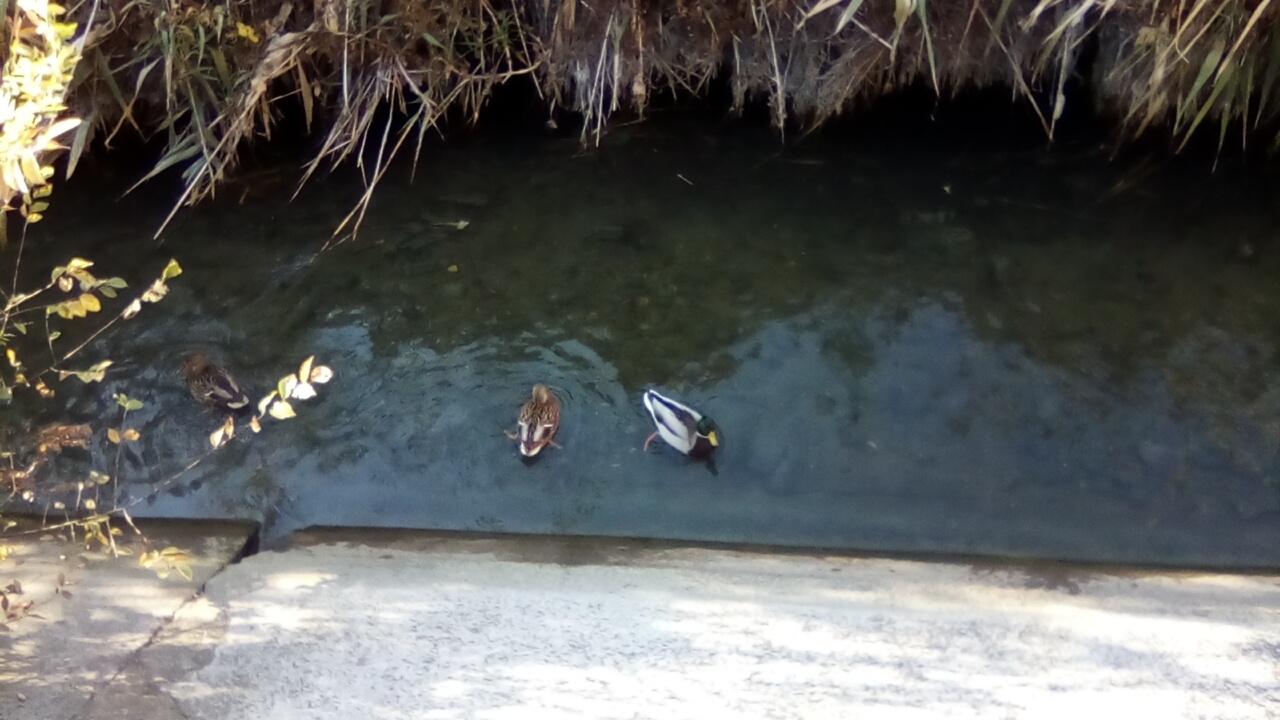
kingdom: Animalia
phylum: Chordata
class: Aves
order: Anseriformes
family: Anatidae
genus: Anas
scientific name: Anas platyrhynchos
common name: Mallard
